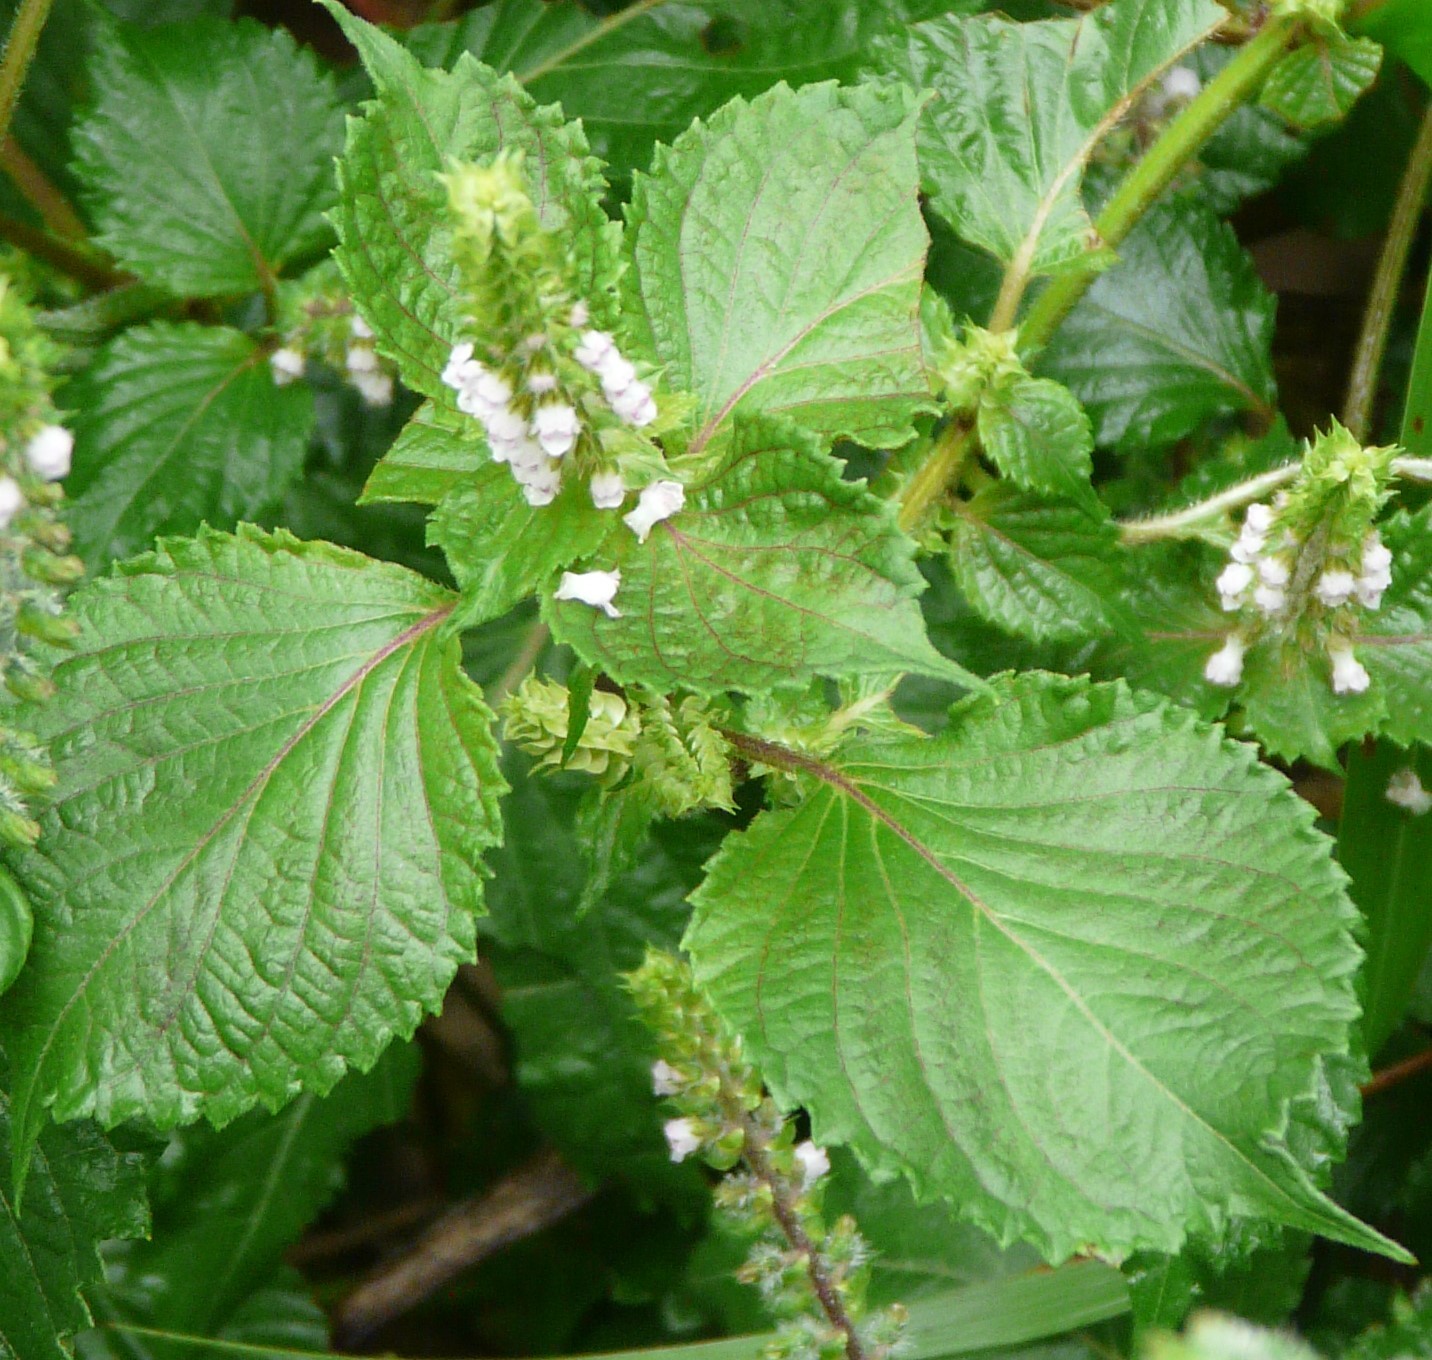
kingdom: Plantae
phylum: Tracheophyta
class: Magnoliopsida
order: Lamiales
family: Lamiaceae
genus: Perilla
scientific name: Perilla frutescens
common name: Perilla
